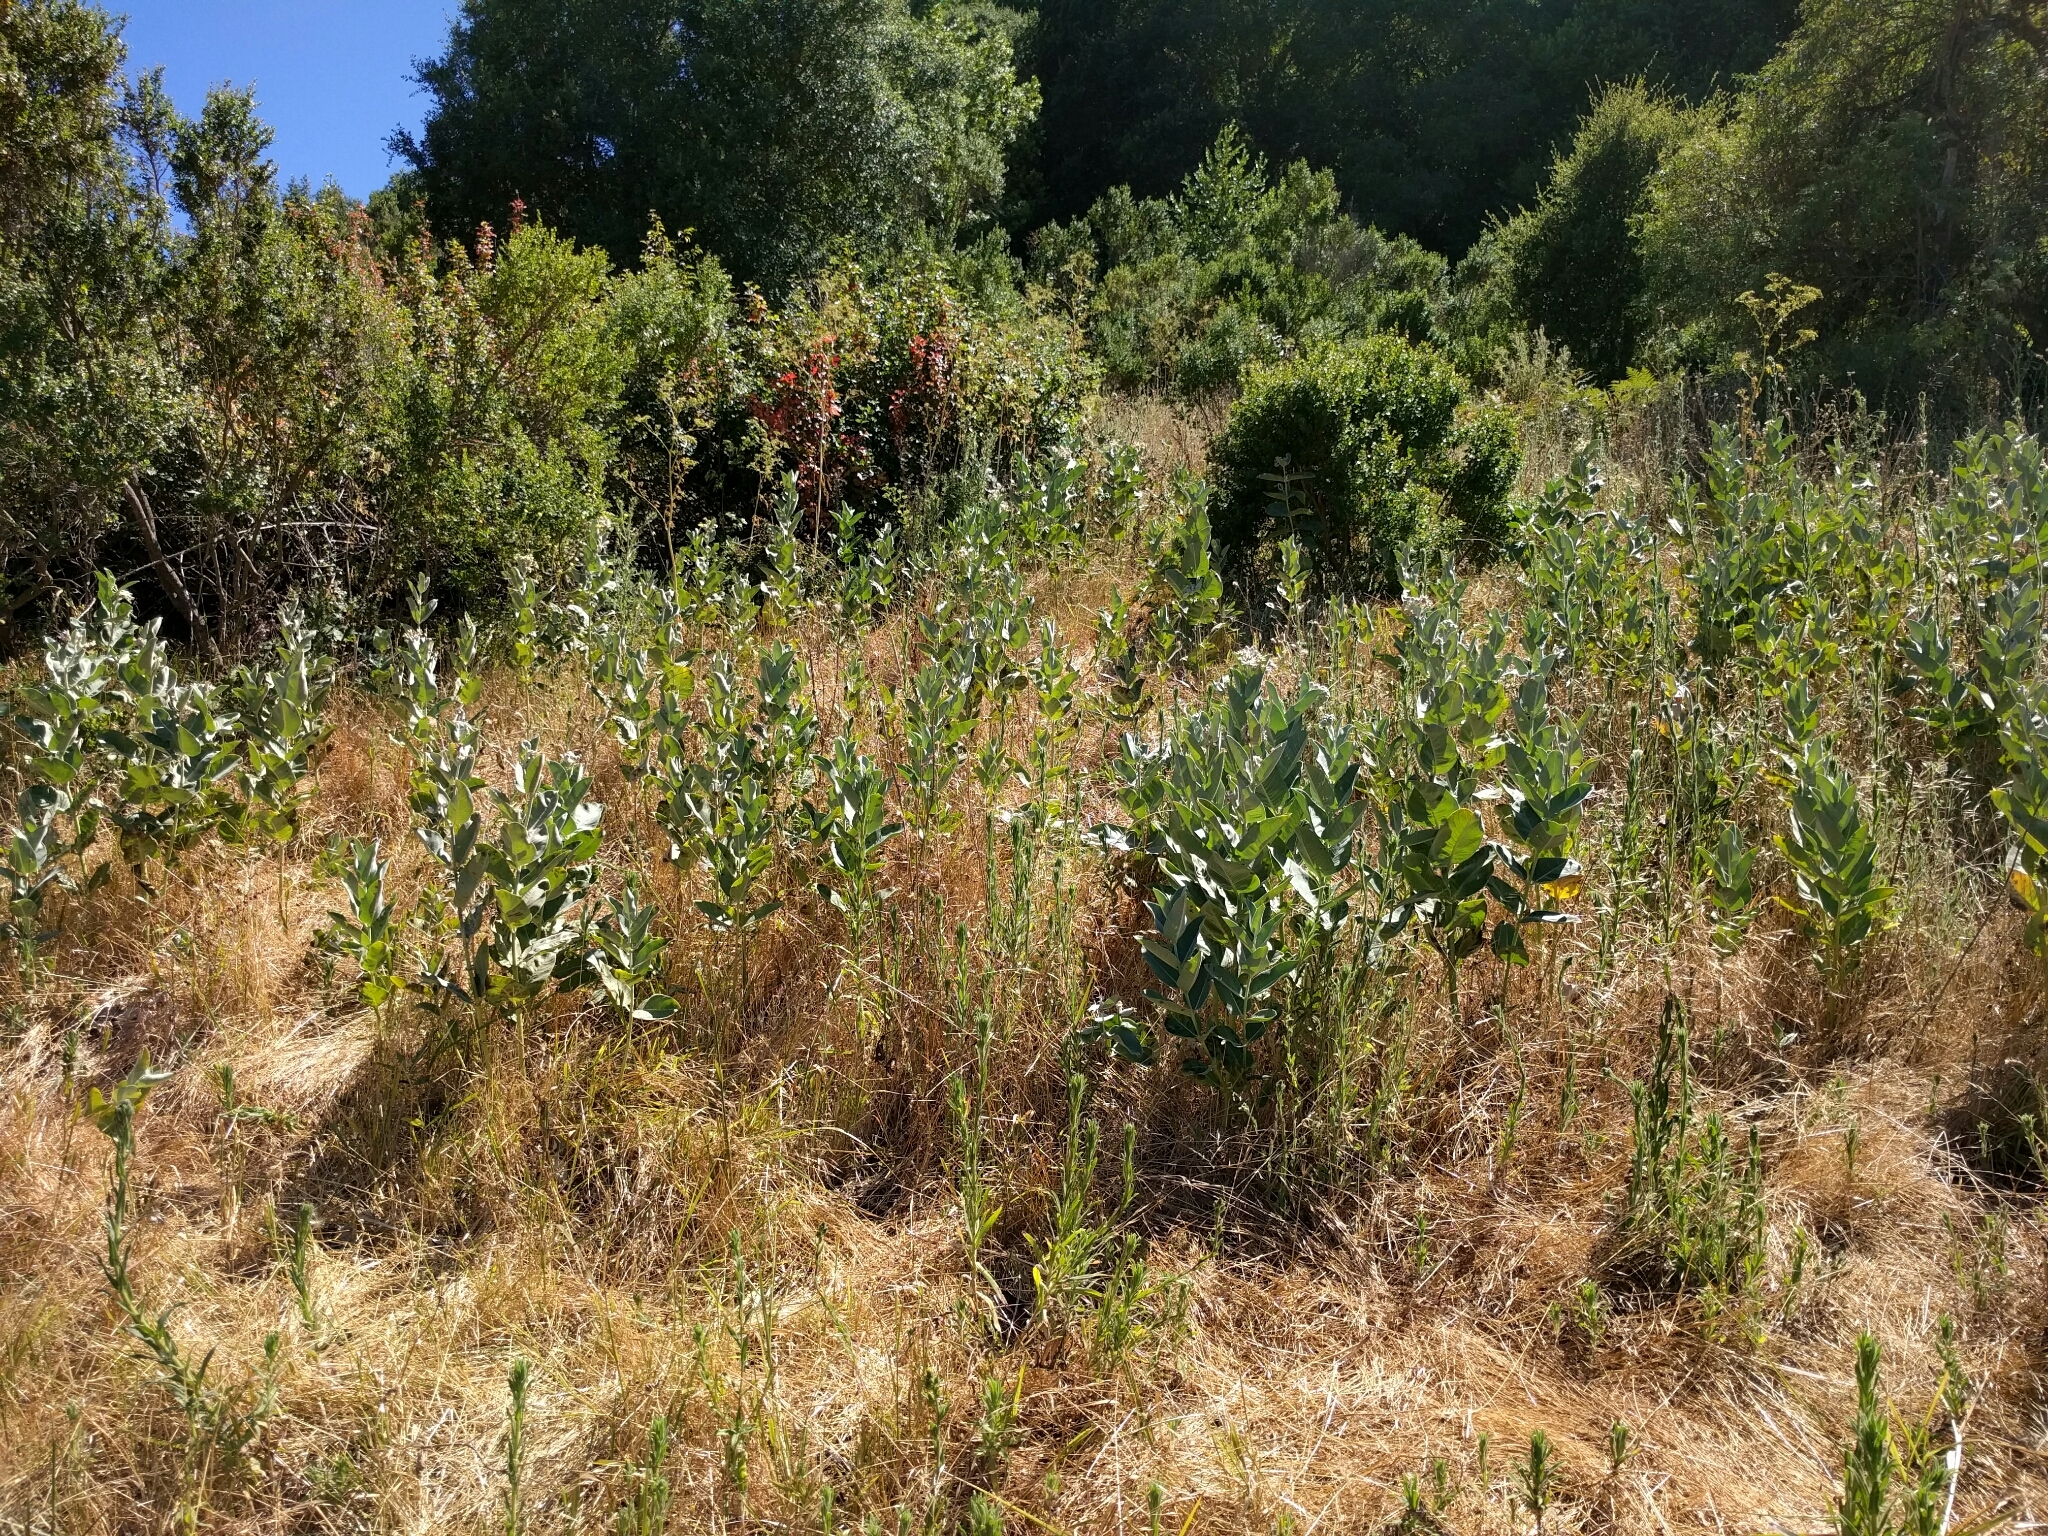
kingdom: Plantae
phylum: Tracheophyta
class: Magnoliopsida
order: Gentianales
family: Apocynaceae
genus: Asclepias
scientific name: Asclepias speciosa
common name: Showy milkweed
